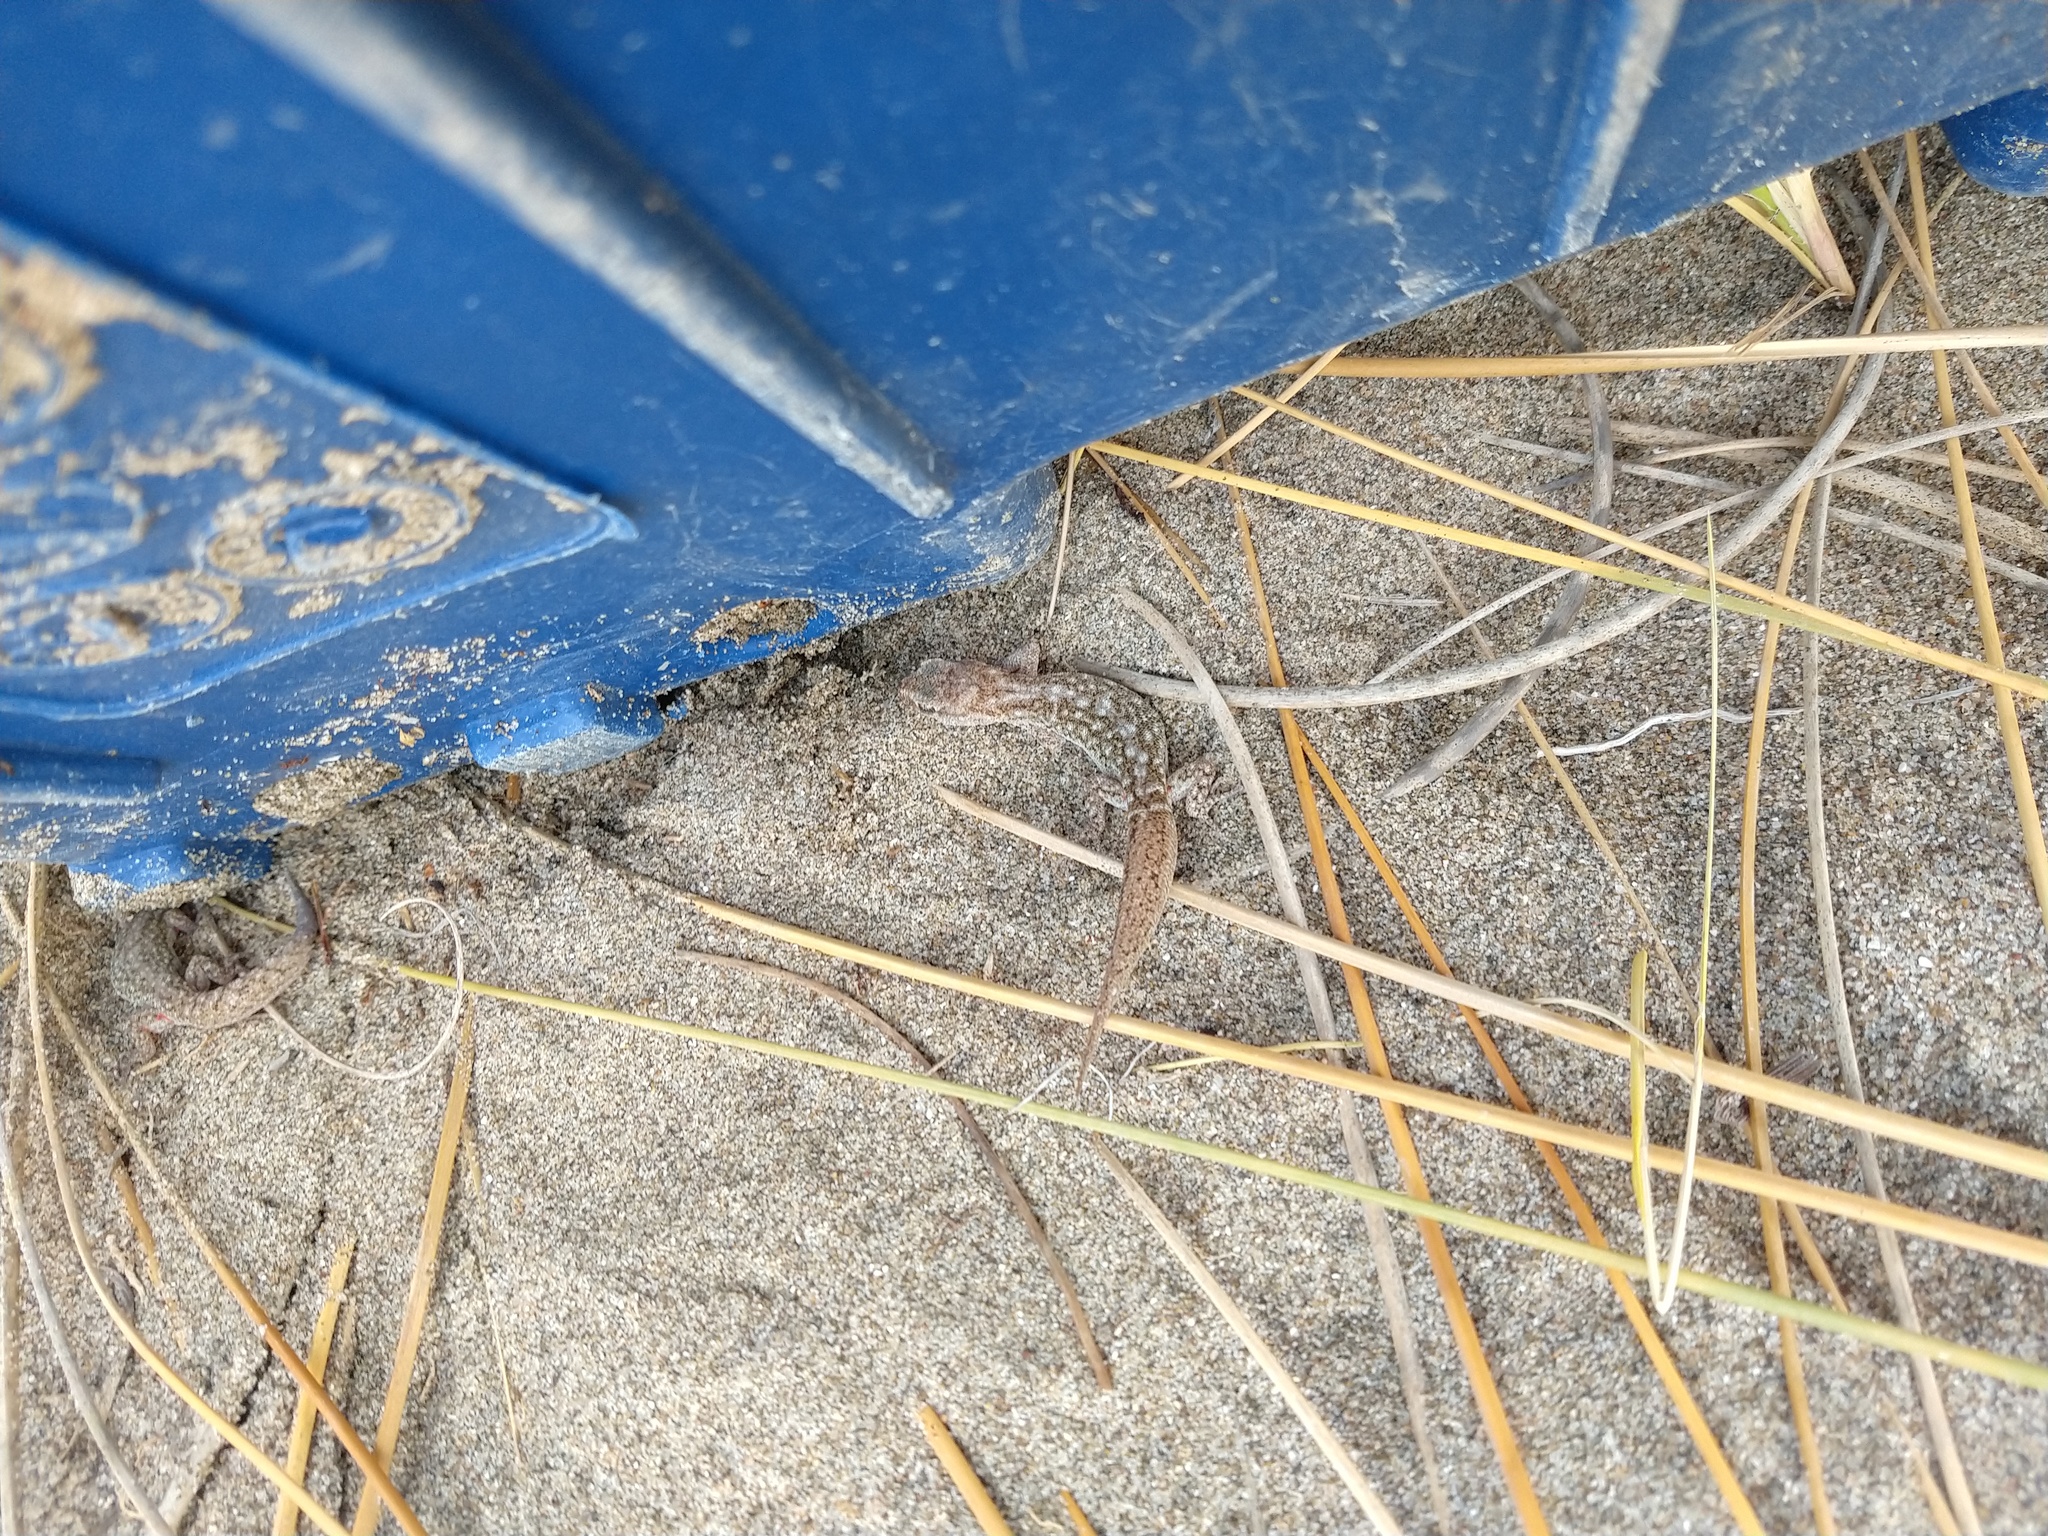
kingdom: Animalia
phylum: Chordata
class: Squamata
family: Phyllodactylidae
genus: Homonota
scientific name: Homonota darwinii
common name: Darwin's marked gecko
